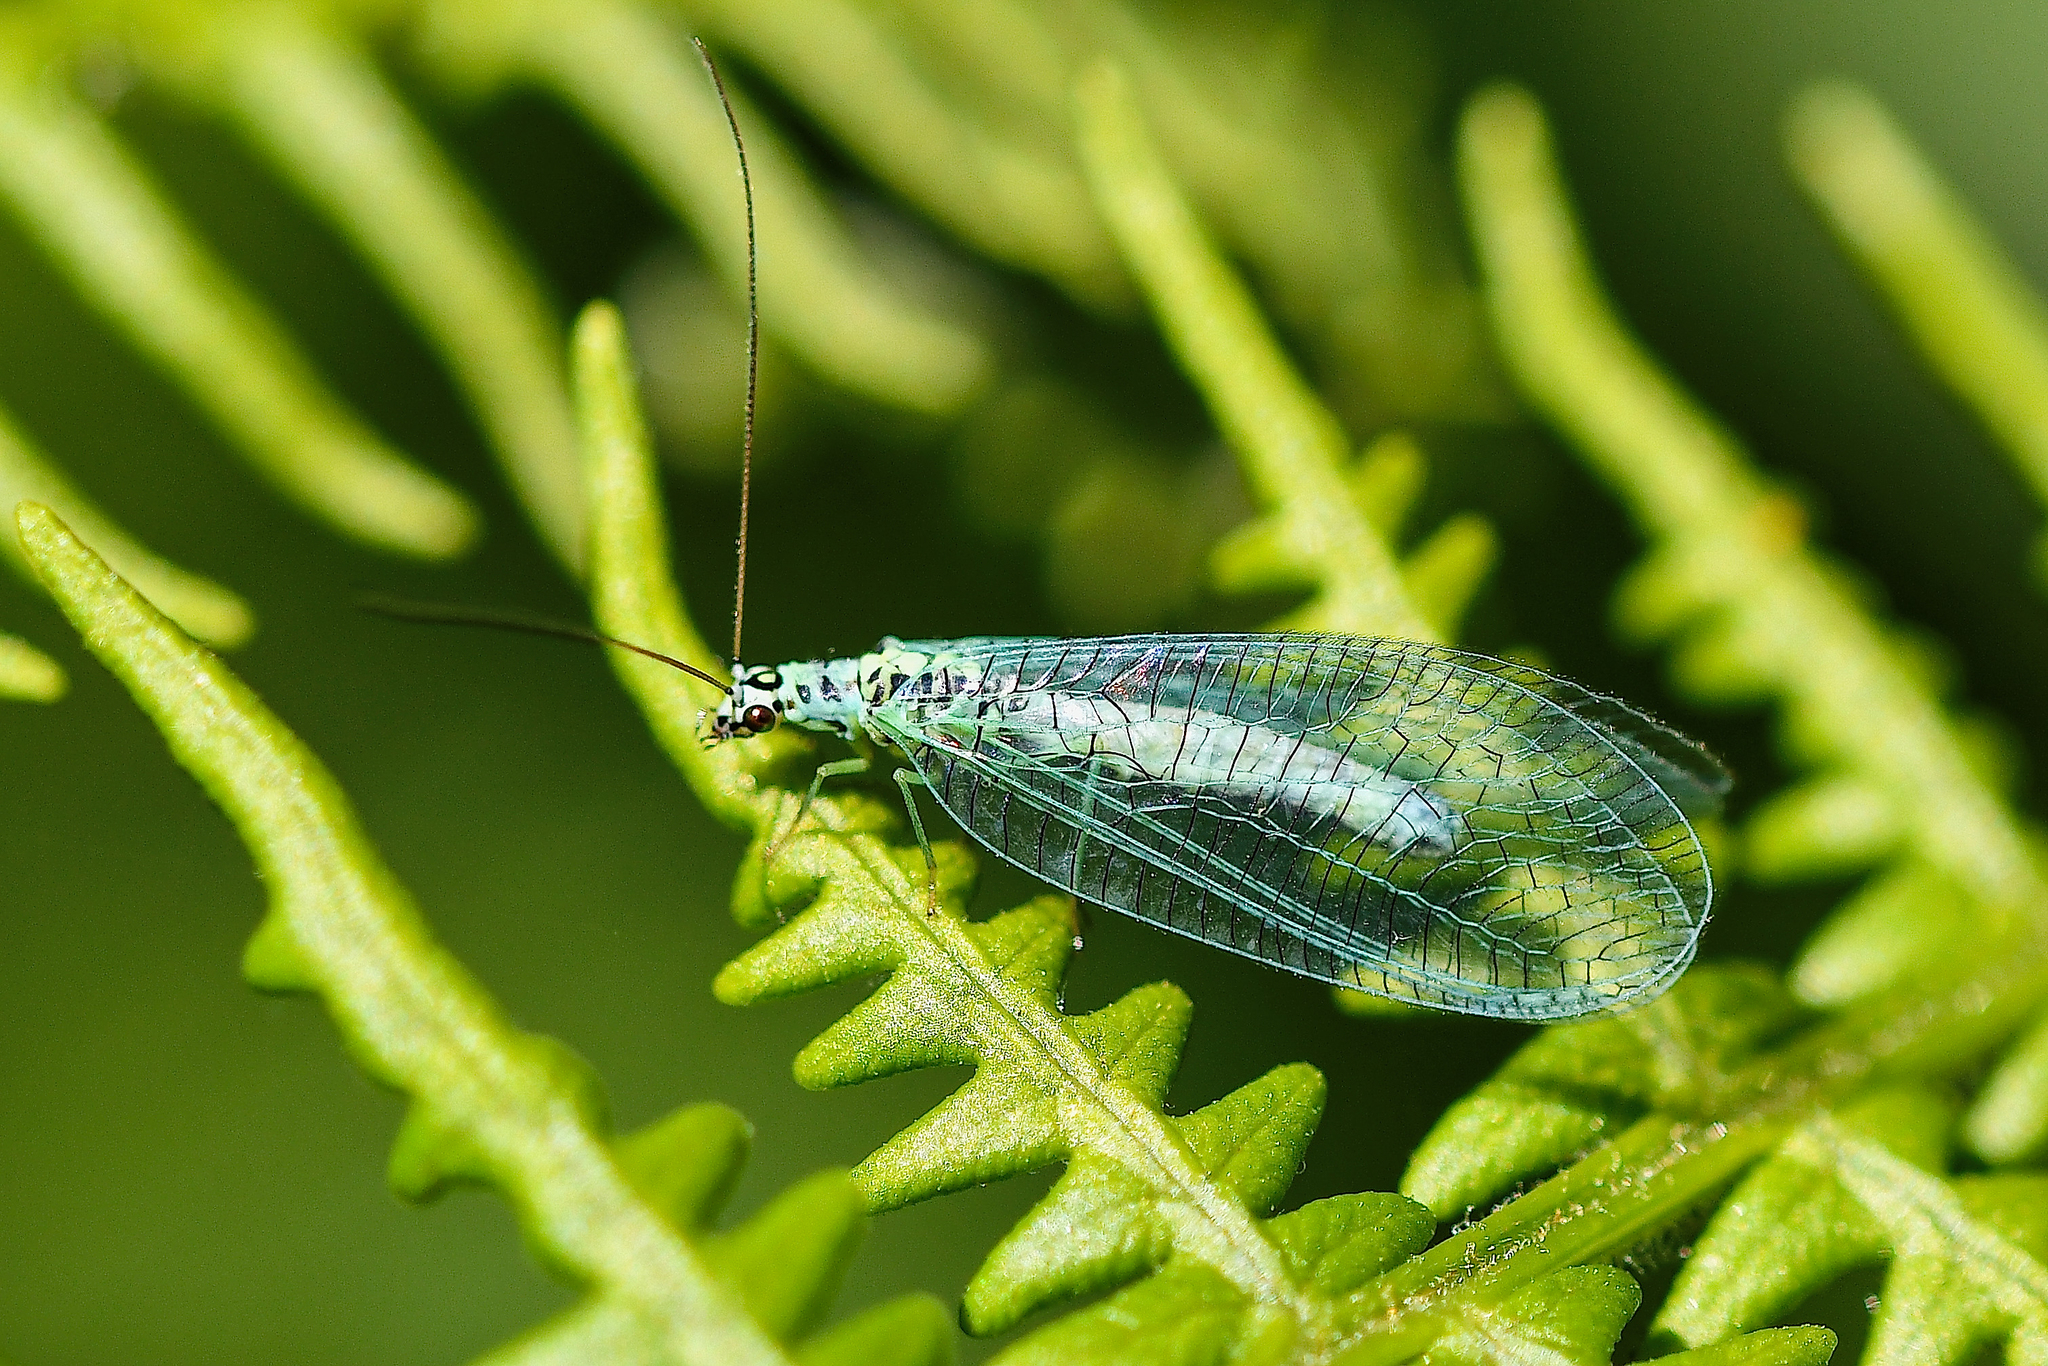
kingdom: Animalia
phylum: Arthropoda
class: Insecta
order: Neuroptera
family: Chrysopidae
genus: Chrysopa
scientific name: Chrysopa perla
